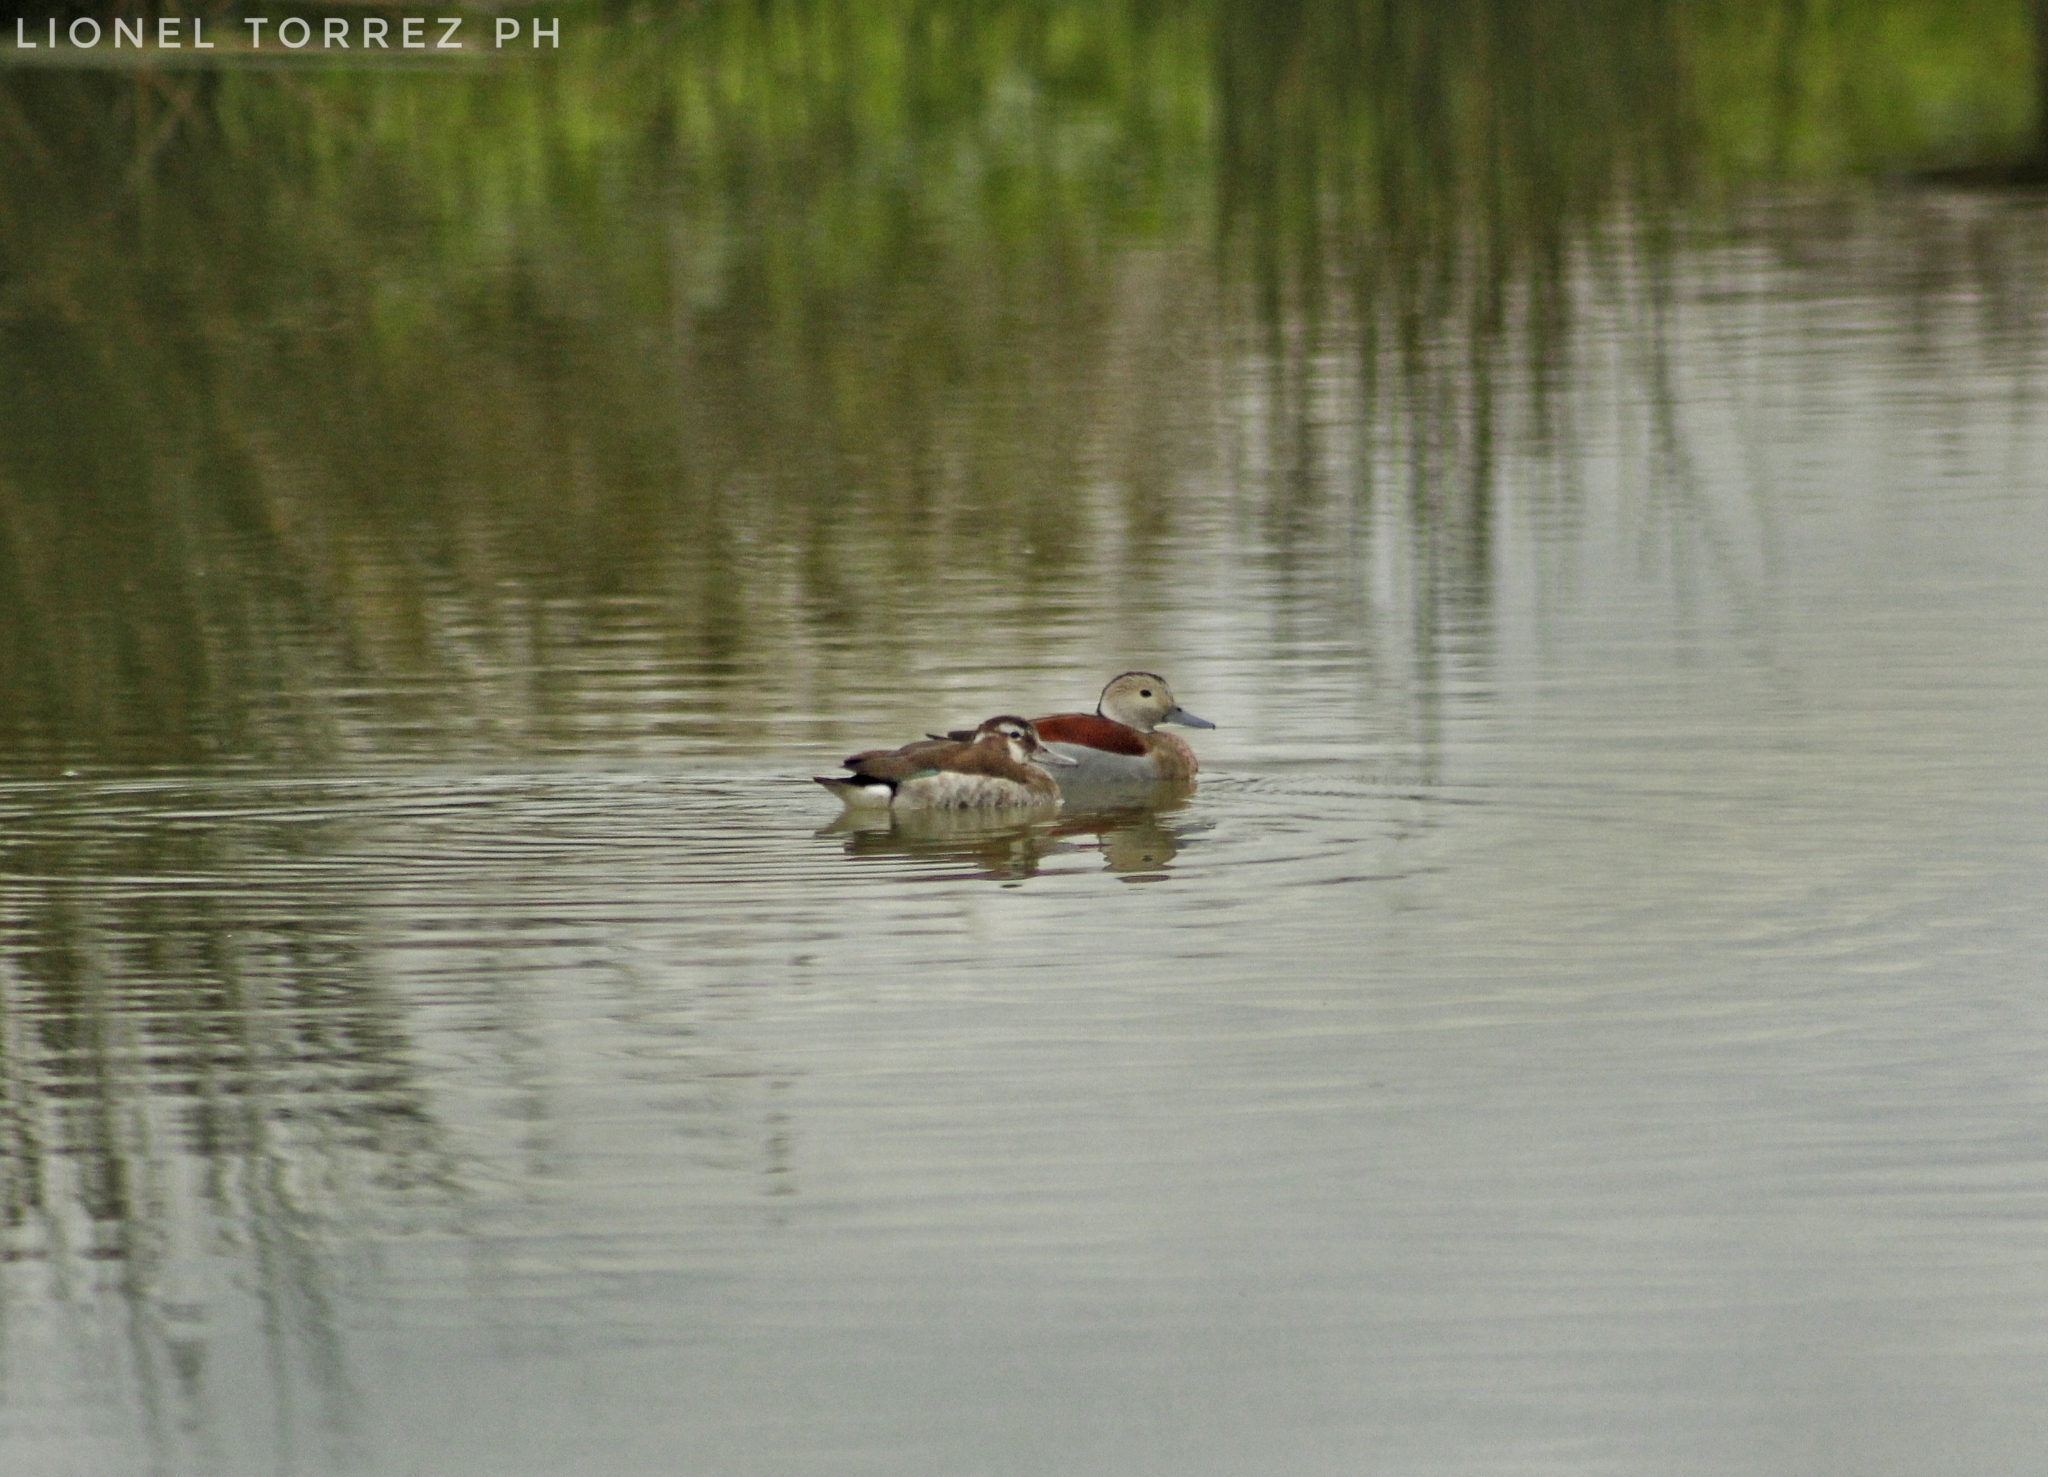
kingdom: Animalia
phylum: Chordata
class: Aves
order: Anseriformes
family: Anatidae
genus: Callonetta
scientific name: Callonetta leucophrys
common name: Ringed teal
